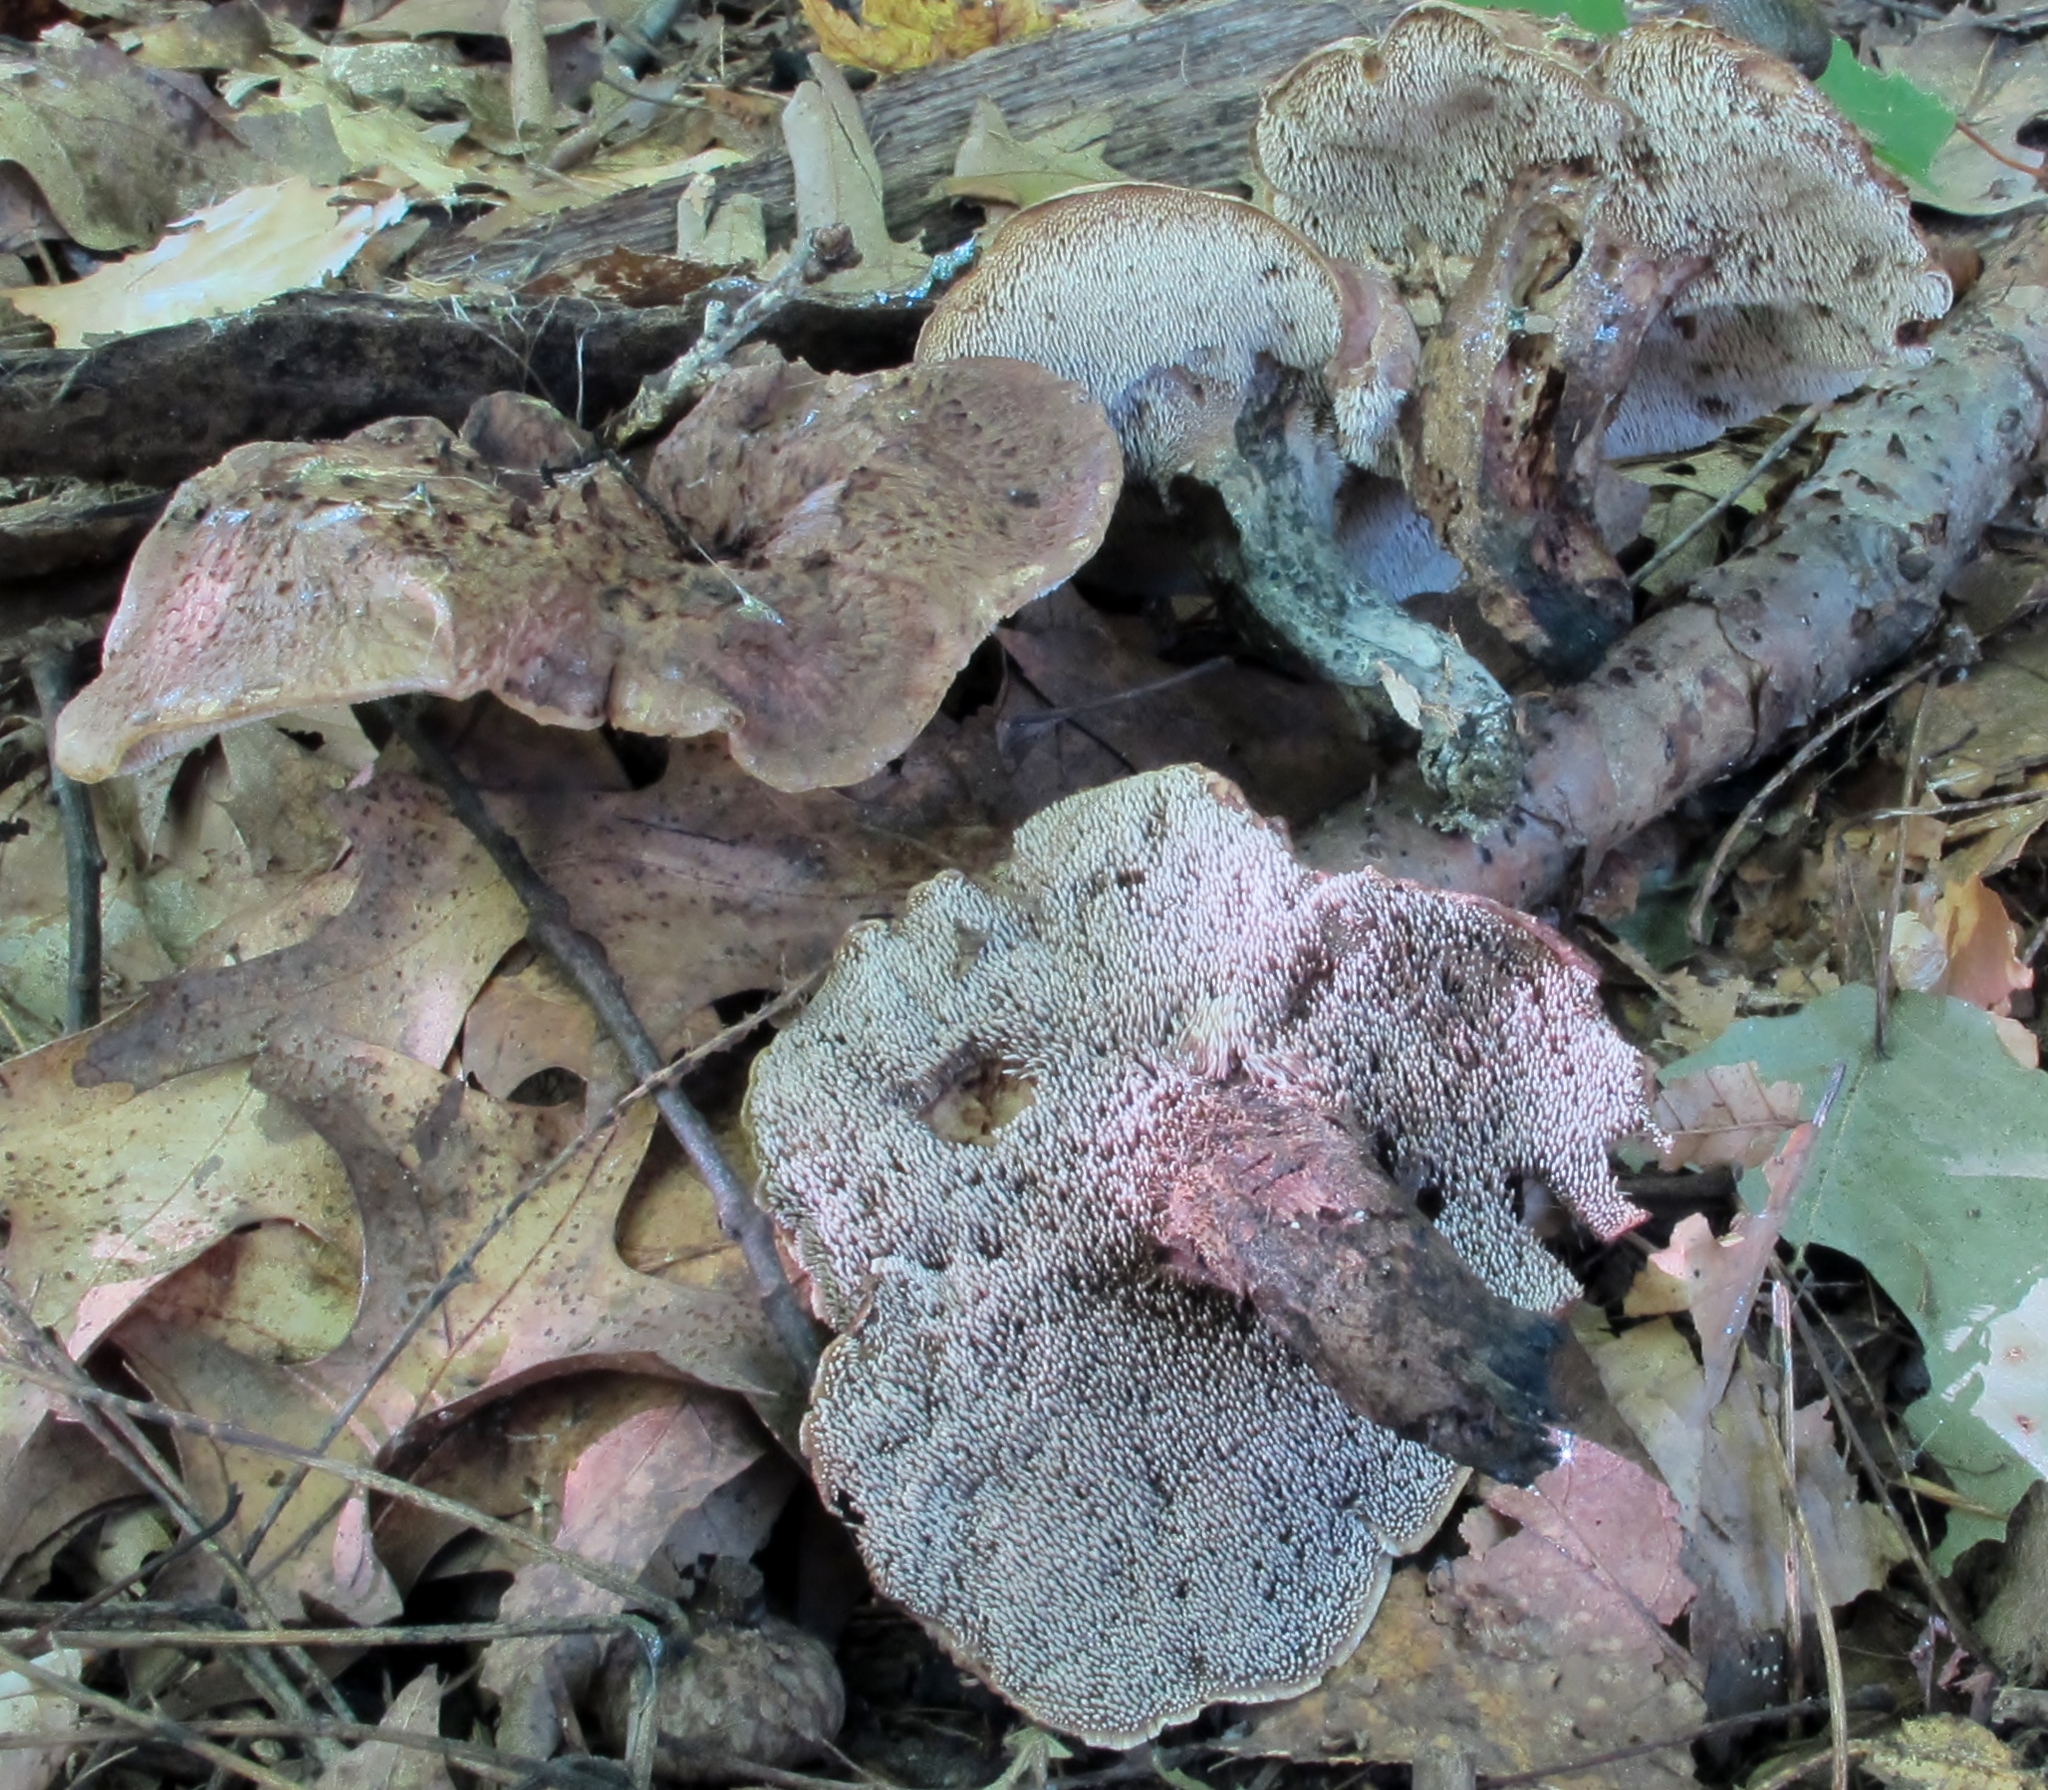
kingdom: Fungi
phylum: Basidiomycota
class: Agaricomycetes
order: Thelephorales
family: Bankeraceae
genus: Hydnellum
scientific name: Hydnellum fennicum
